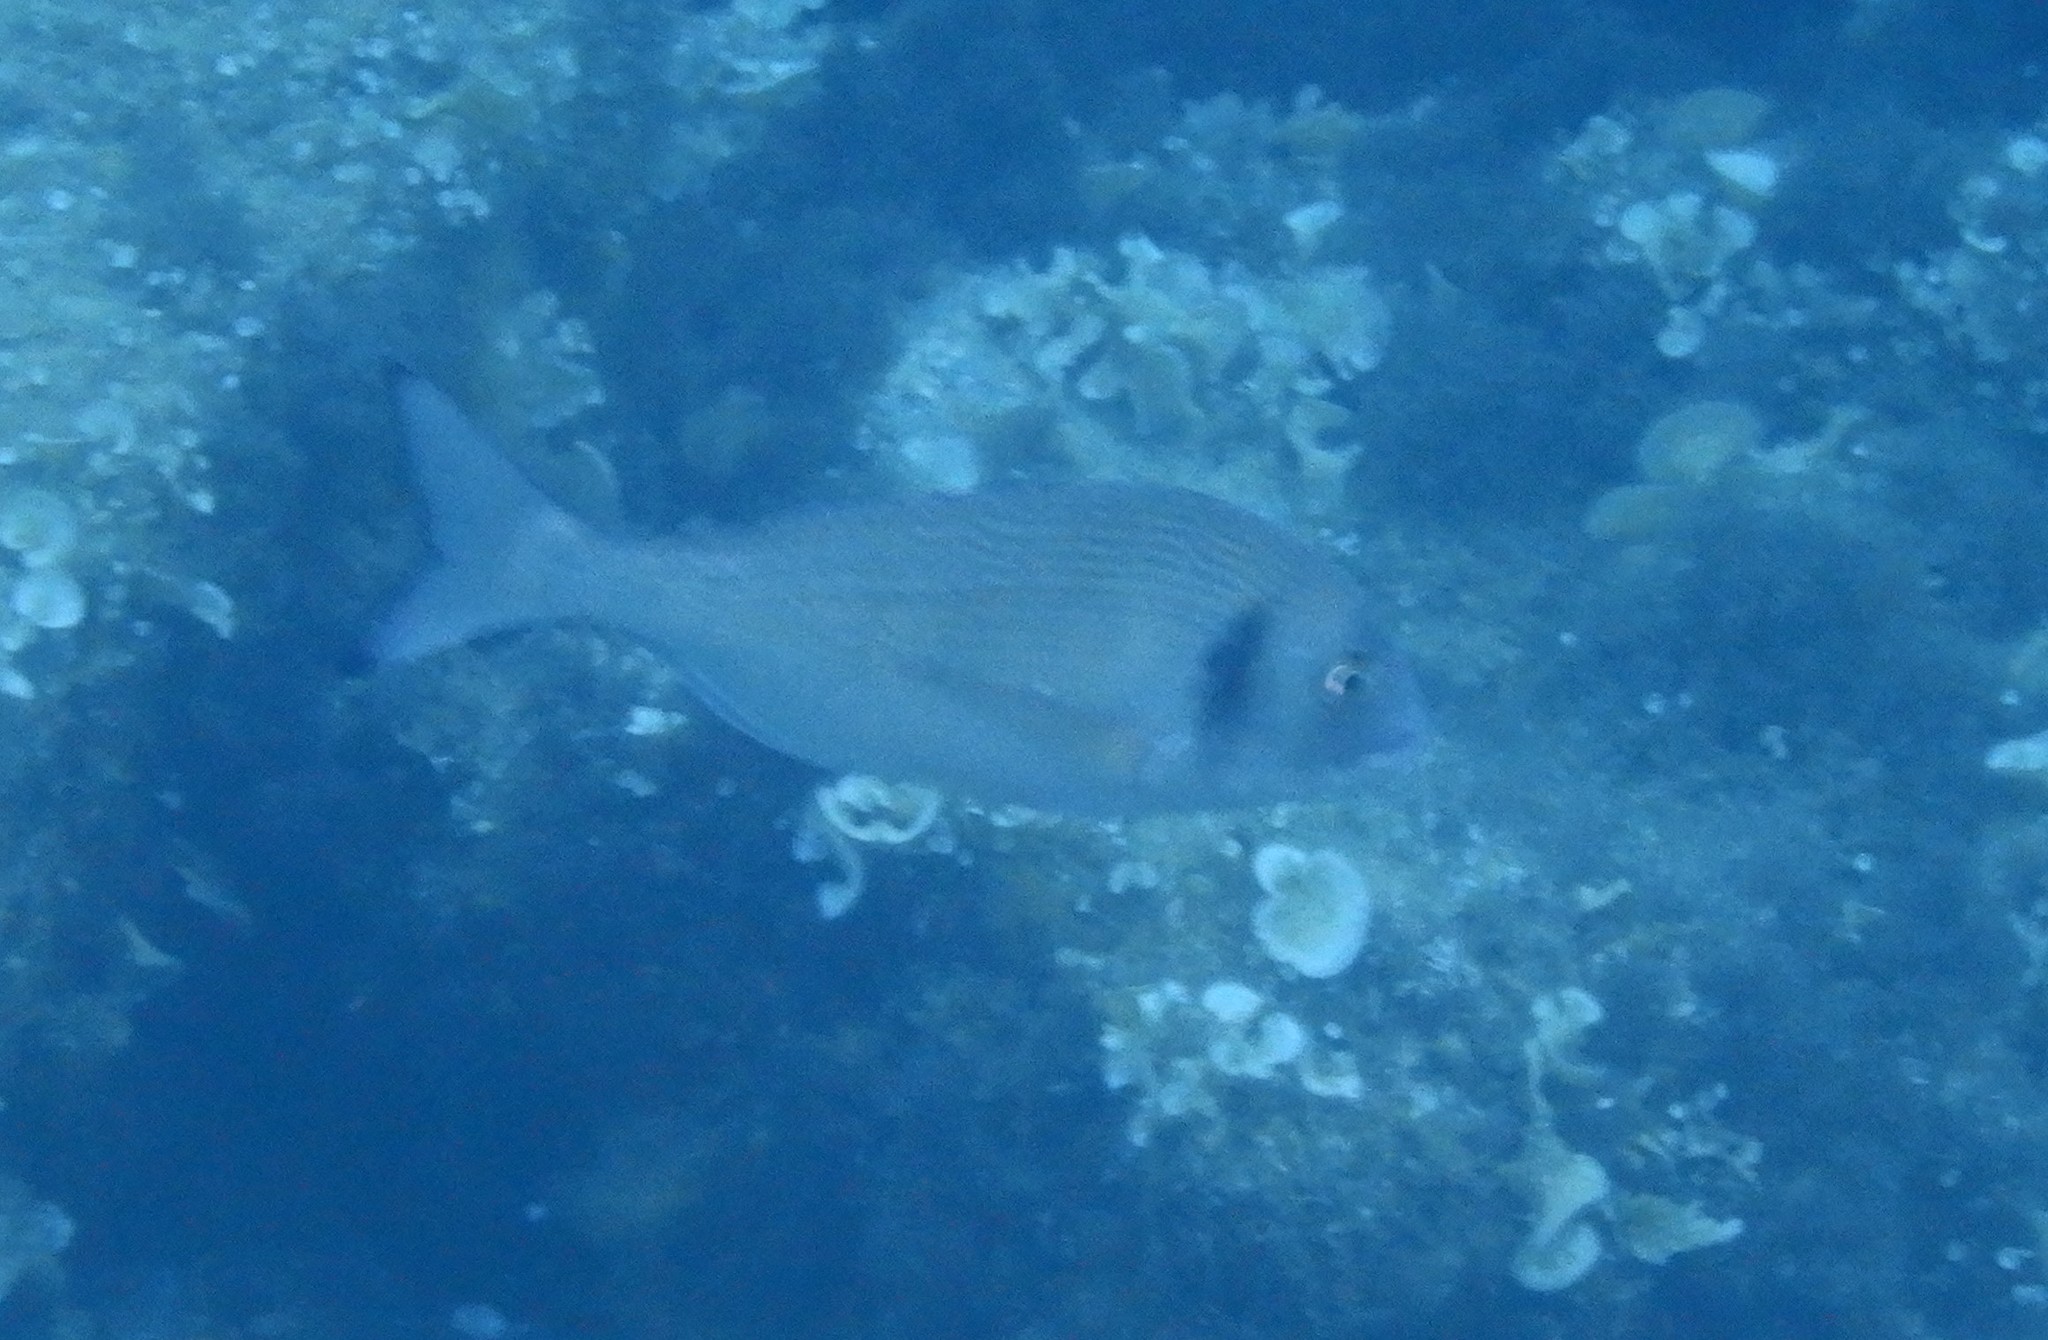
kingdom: Animalia
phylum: Chordata
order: Perciformes
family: Sparidae
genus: Sparus
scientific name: Sparus aurata
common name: Gilthead
